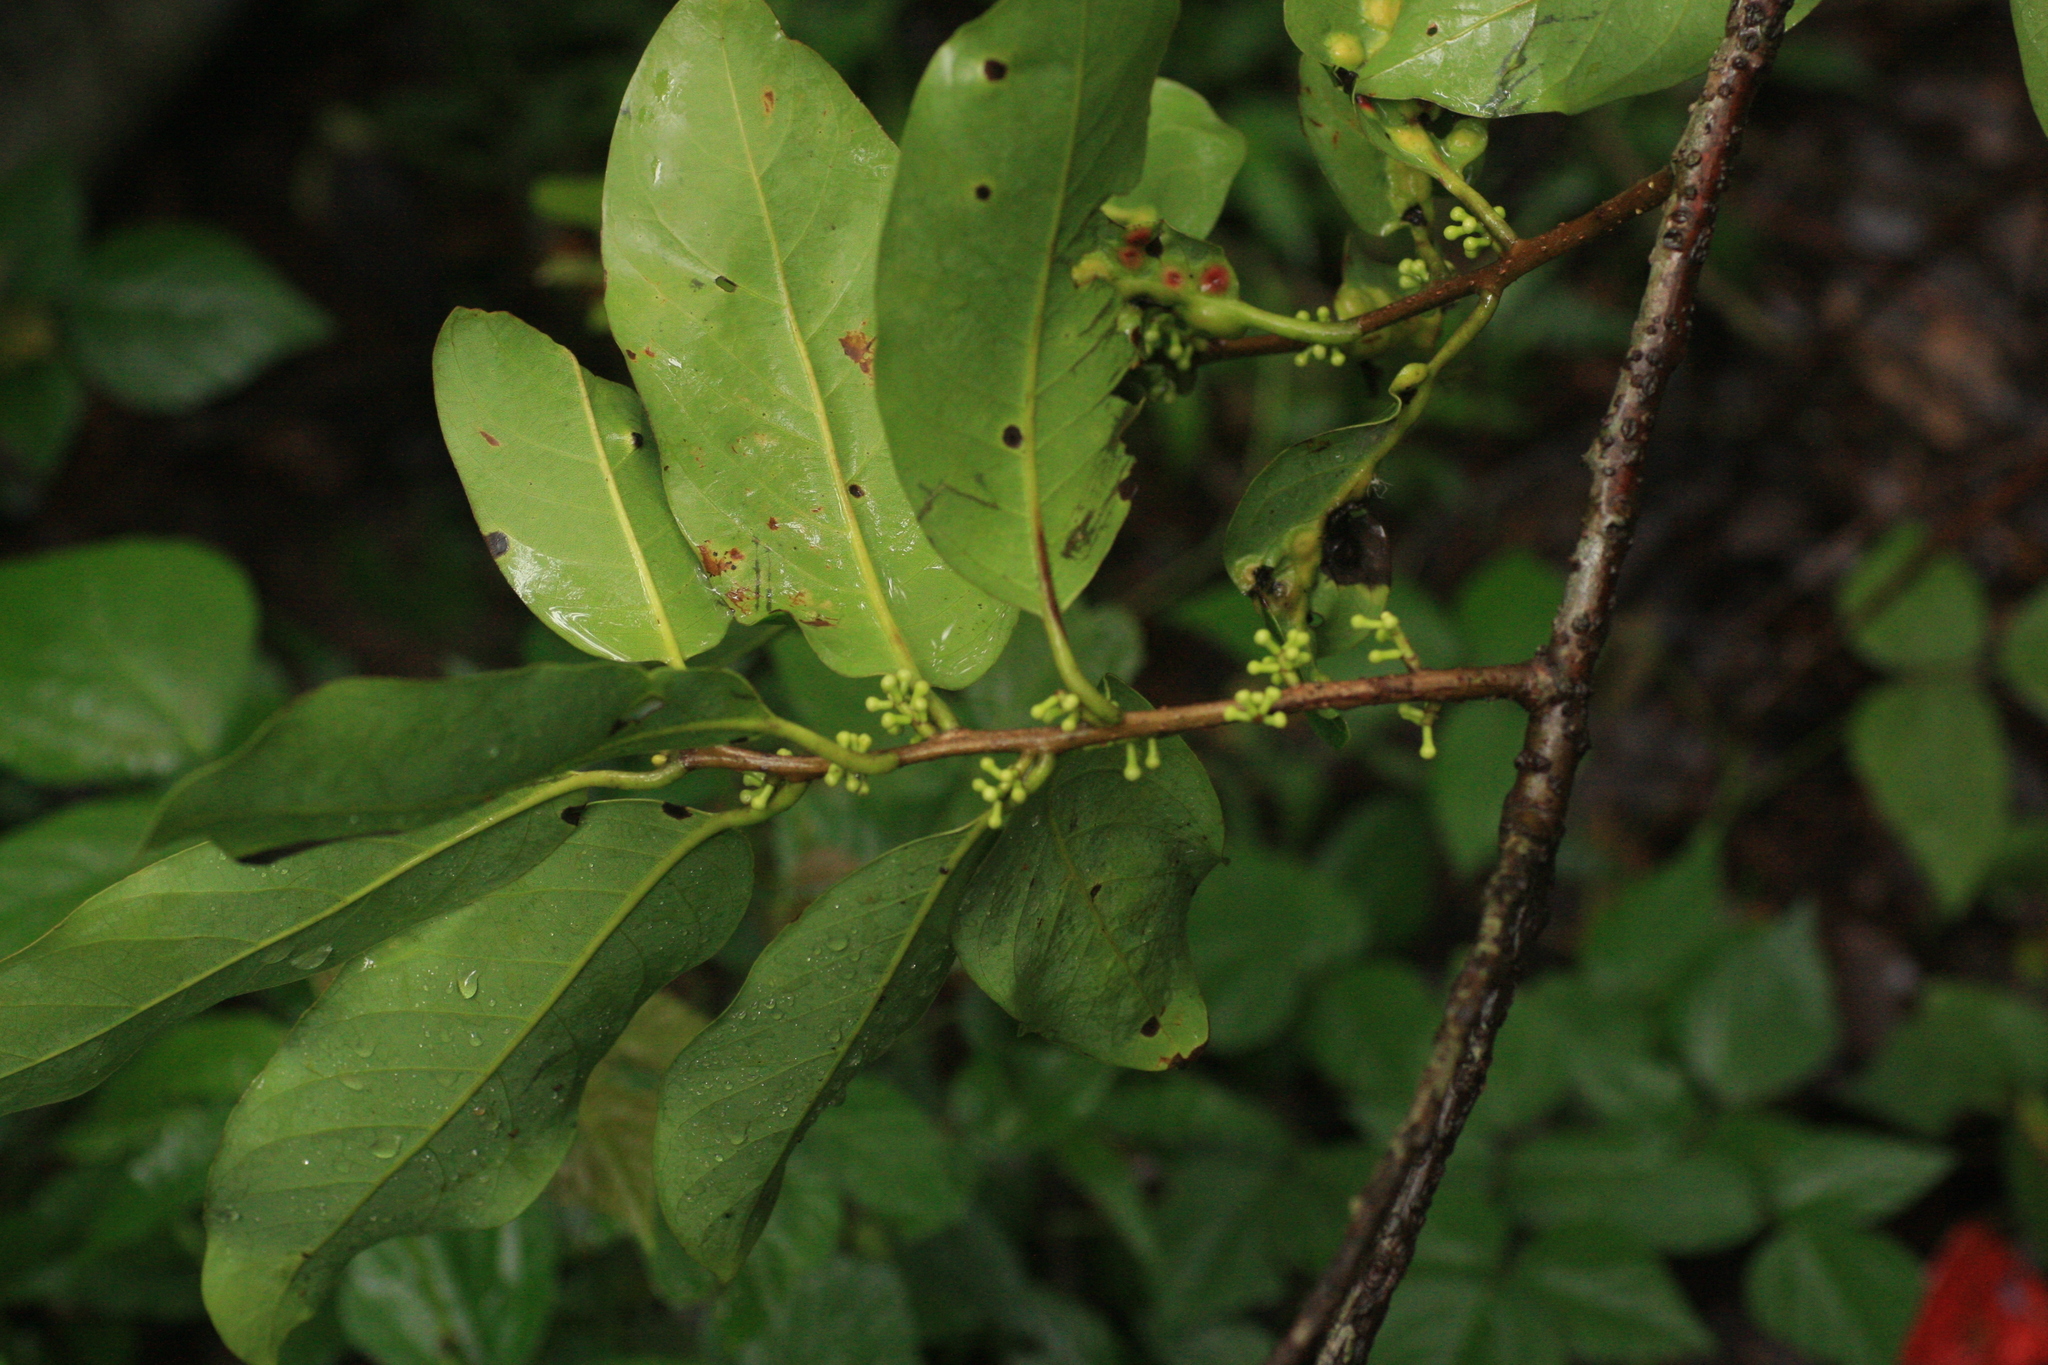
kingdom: Plantae
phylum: Tracheophyta
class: Magnoliopsida
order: Laurales
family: Lauraceae
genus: Litsea
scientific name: Litsea nigrescens
